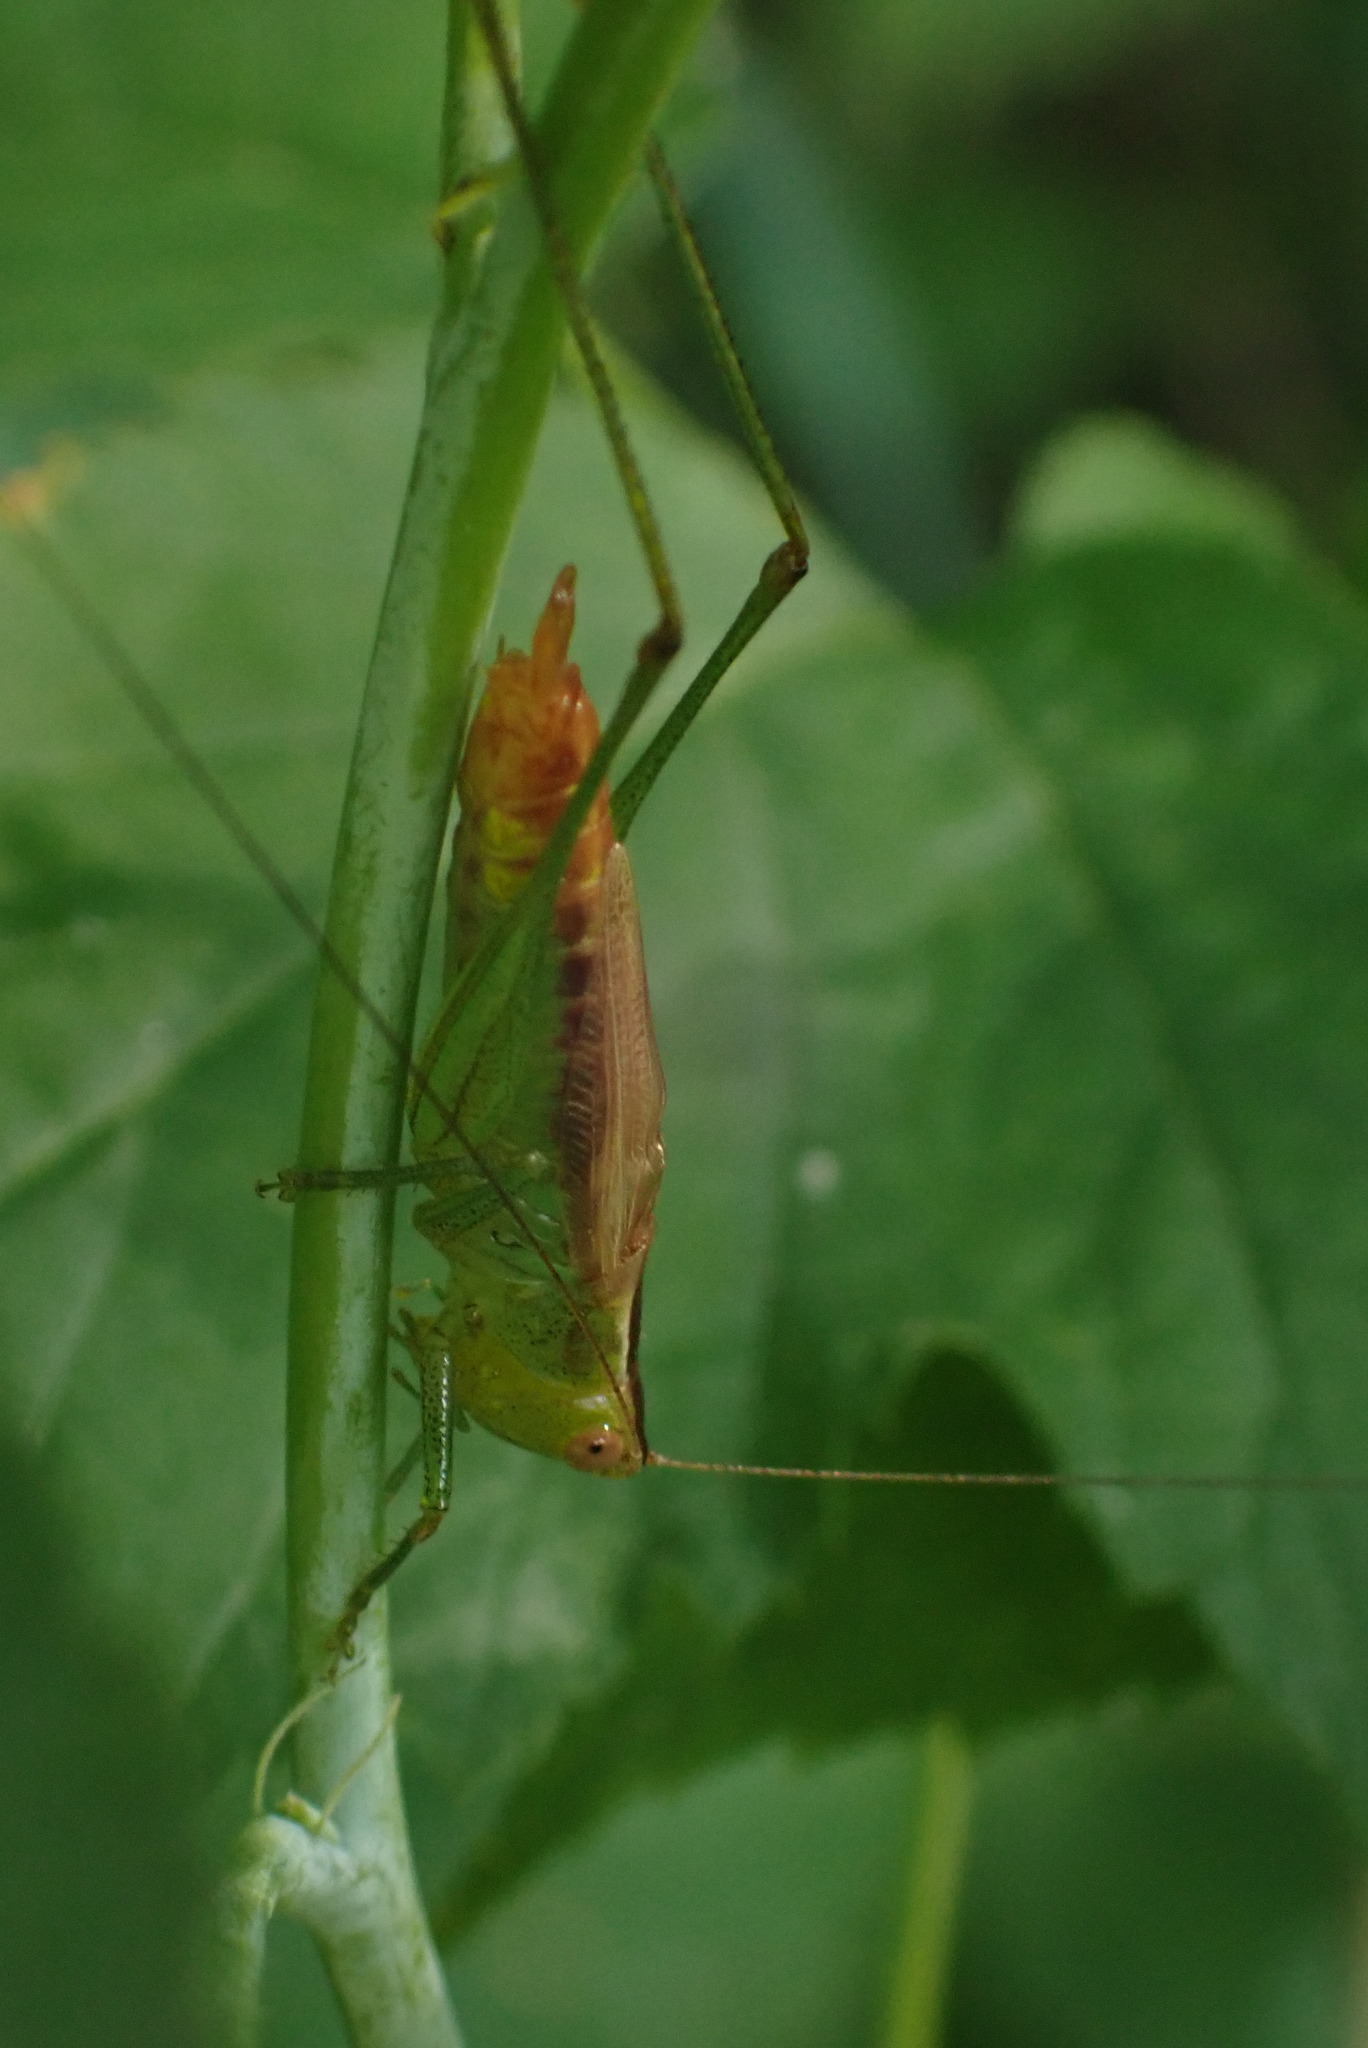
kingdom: Animalia
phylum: Arthropoda
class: Insecta
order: Orthoptera
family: Tettigoniidae
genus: Conocephalus
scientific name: Conocephalus brevipennis
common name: Short-winged meadow katydid
